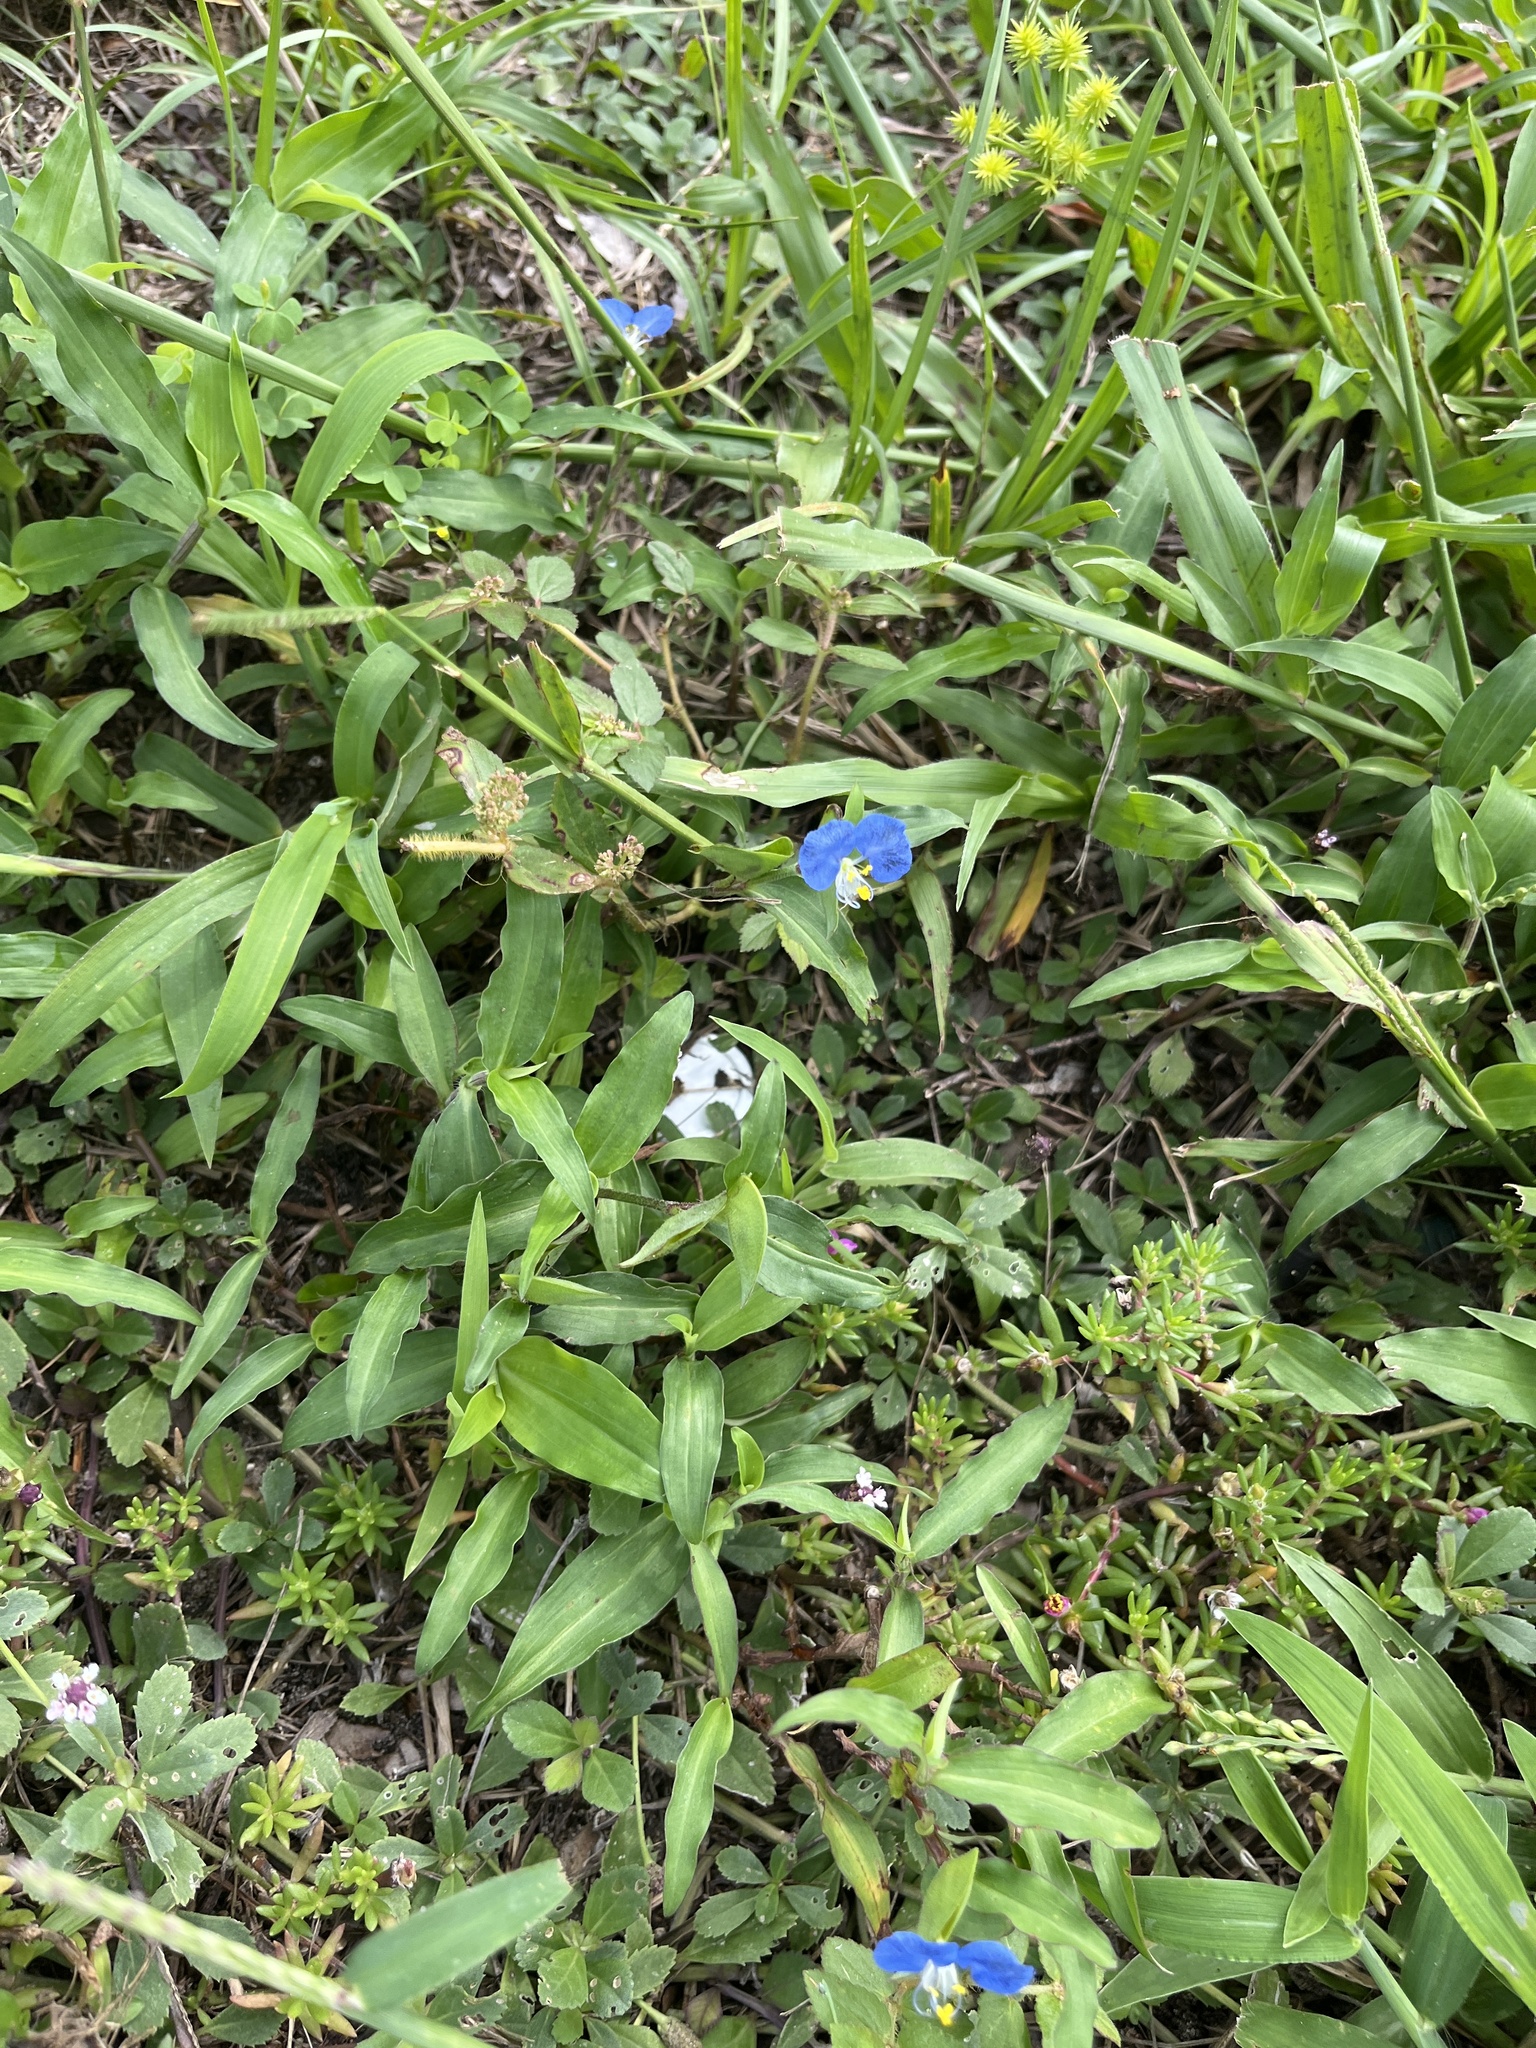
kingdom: Plantae
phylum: Tracheophyta
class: Liliopsida
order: Commelinales
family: Commelinaceae
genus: Commelina
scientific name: Commelina erecta
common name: Blousel blommetjie
